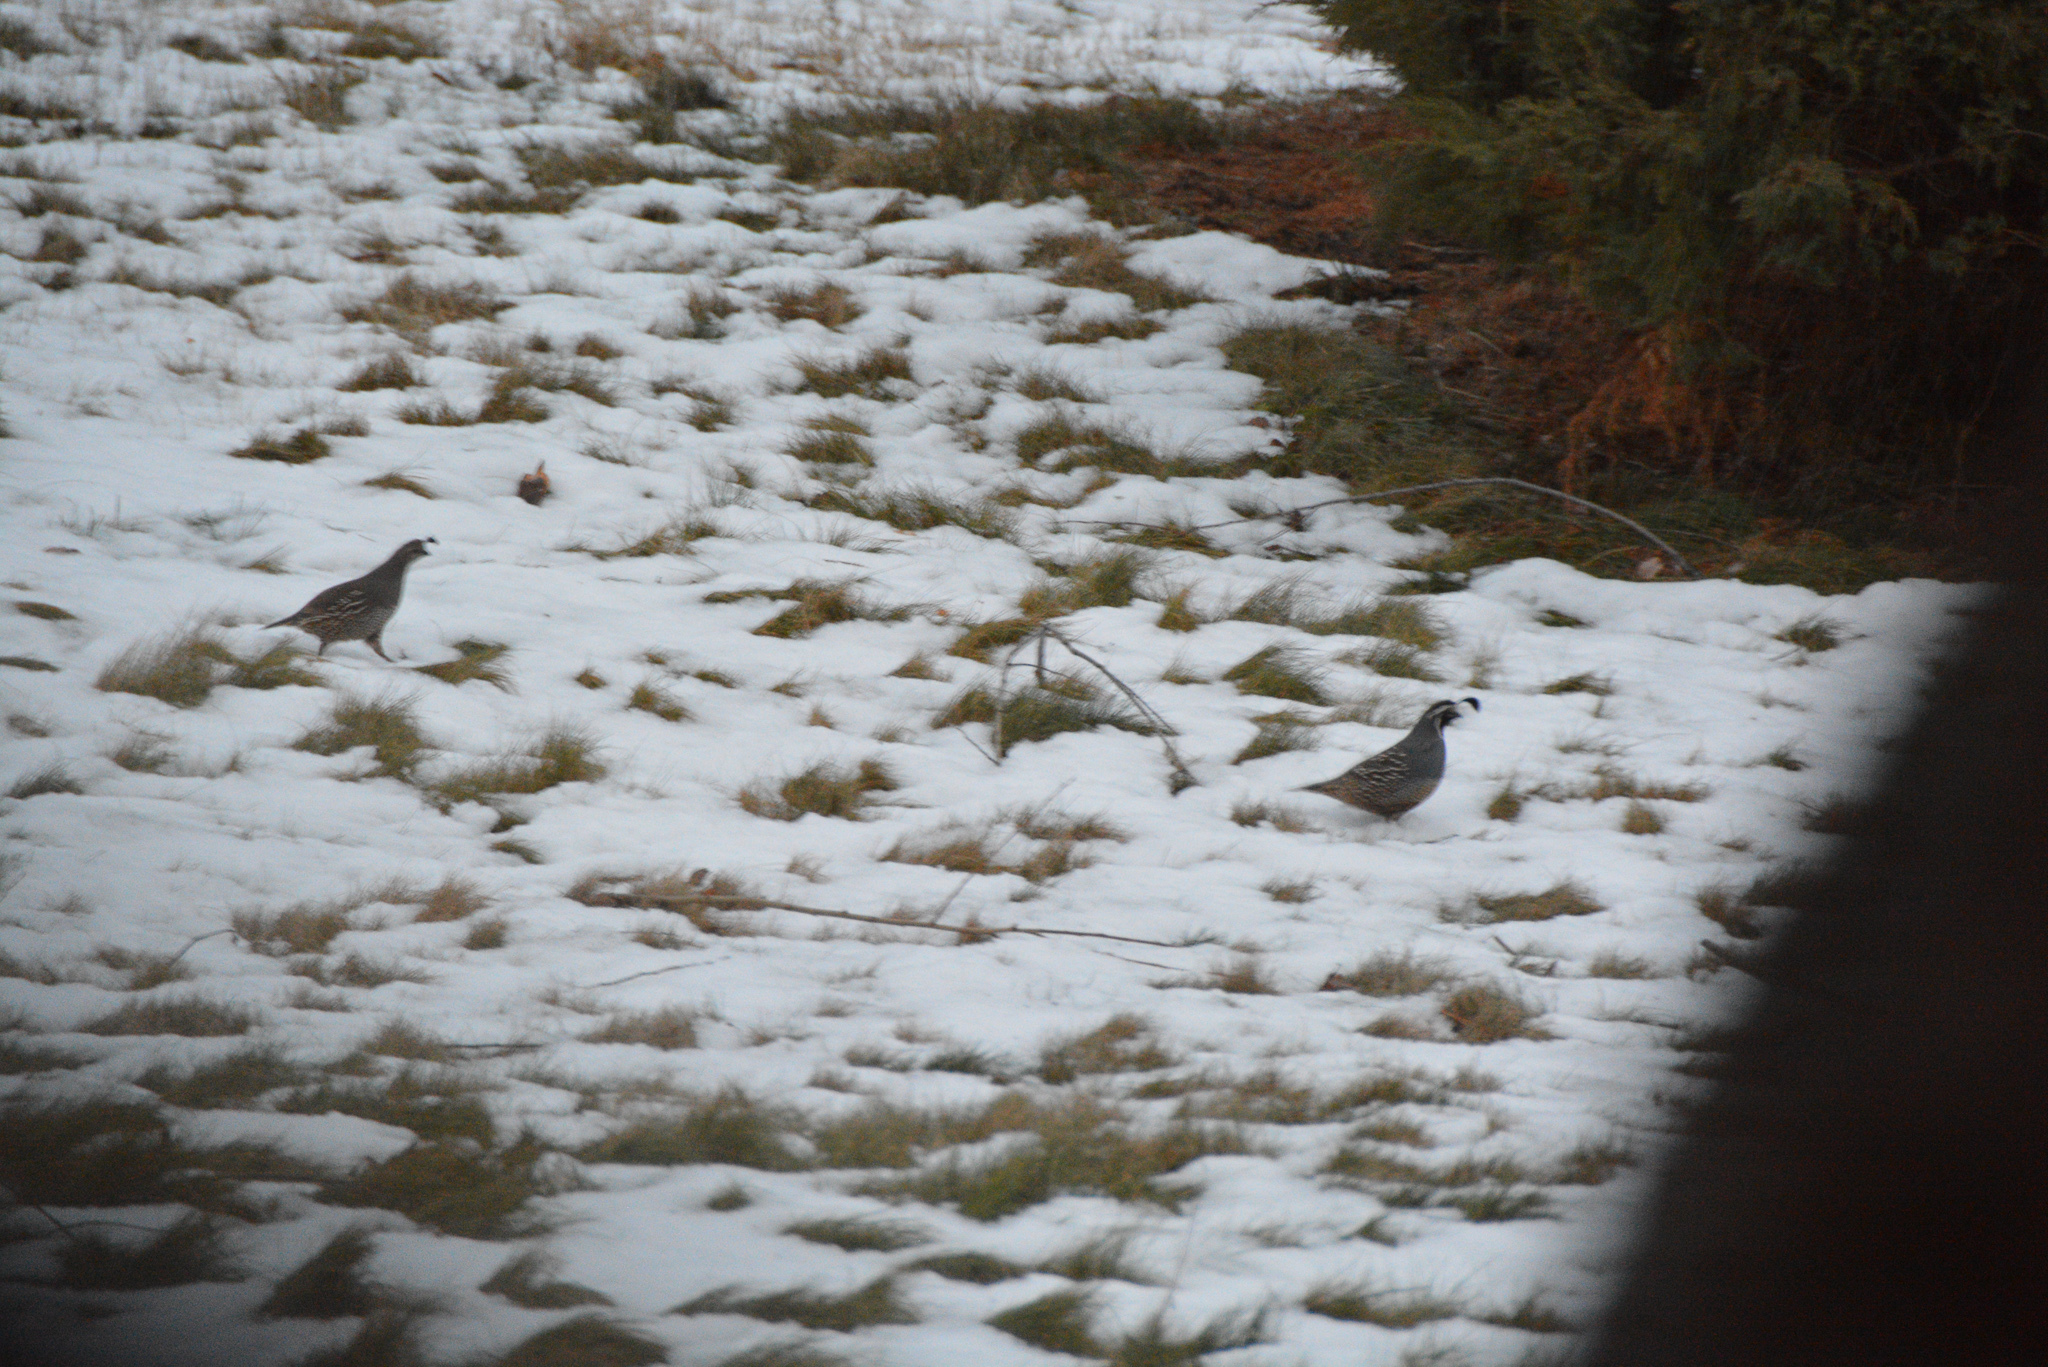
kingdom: Animalia
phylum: Chordata
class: Aves
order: Galliformes
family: Odontophoridae
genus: Callipepla
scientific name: Callipepla californica
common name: California quail
